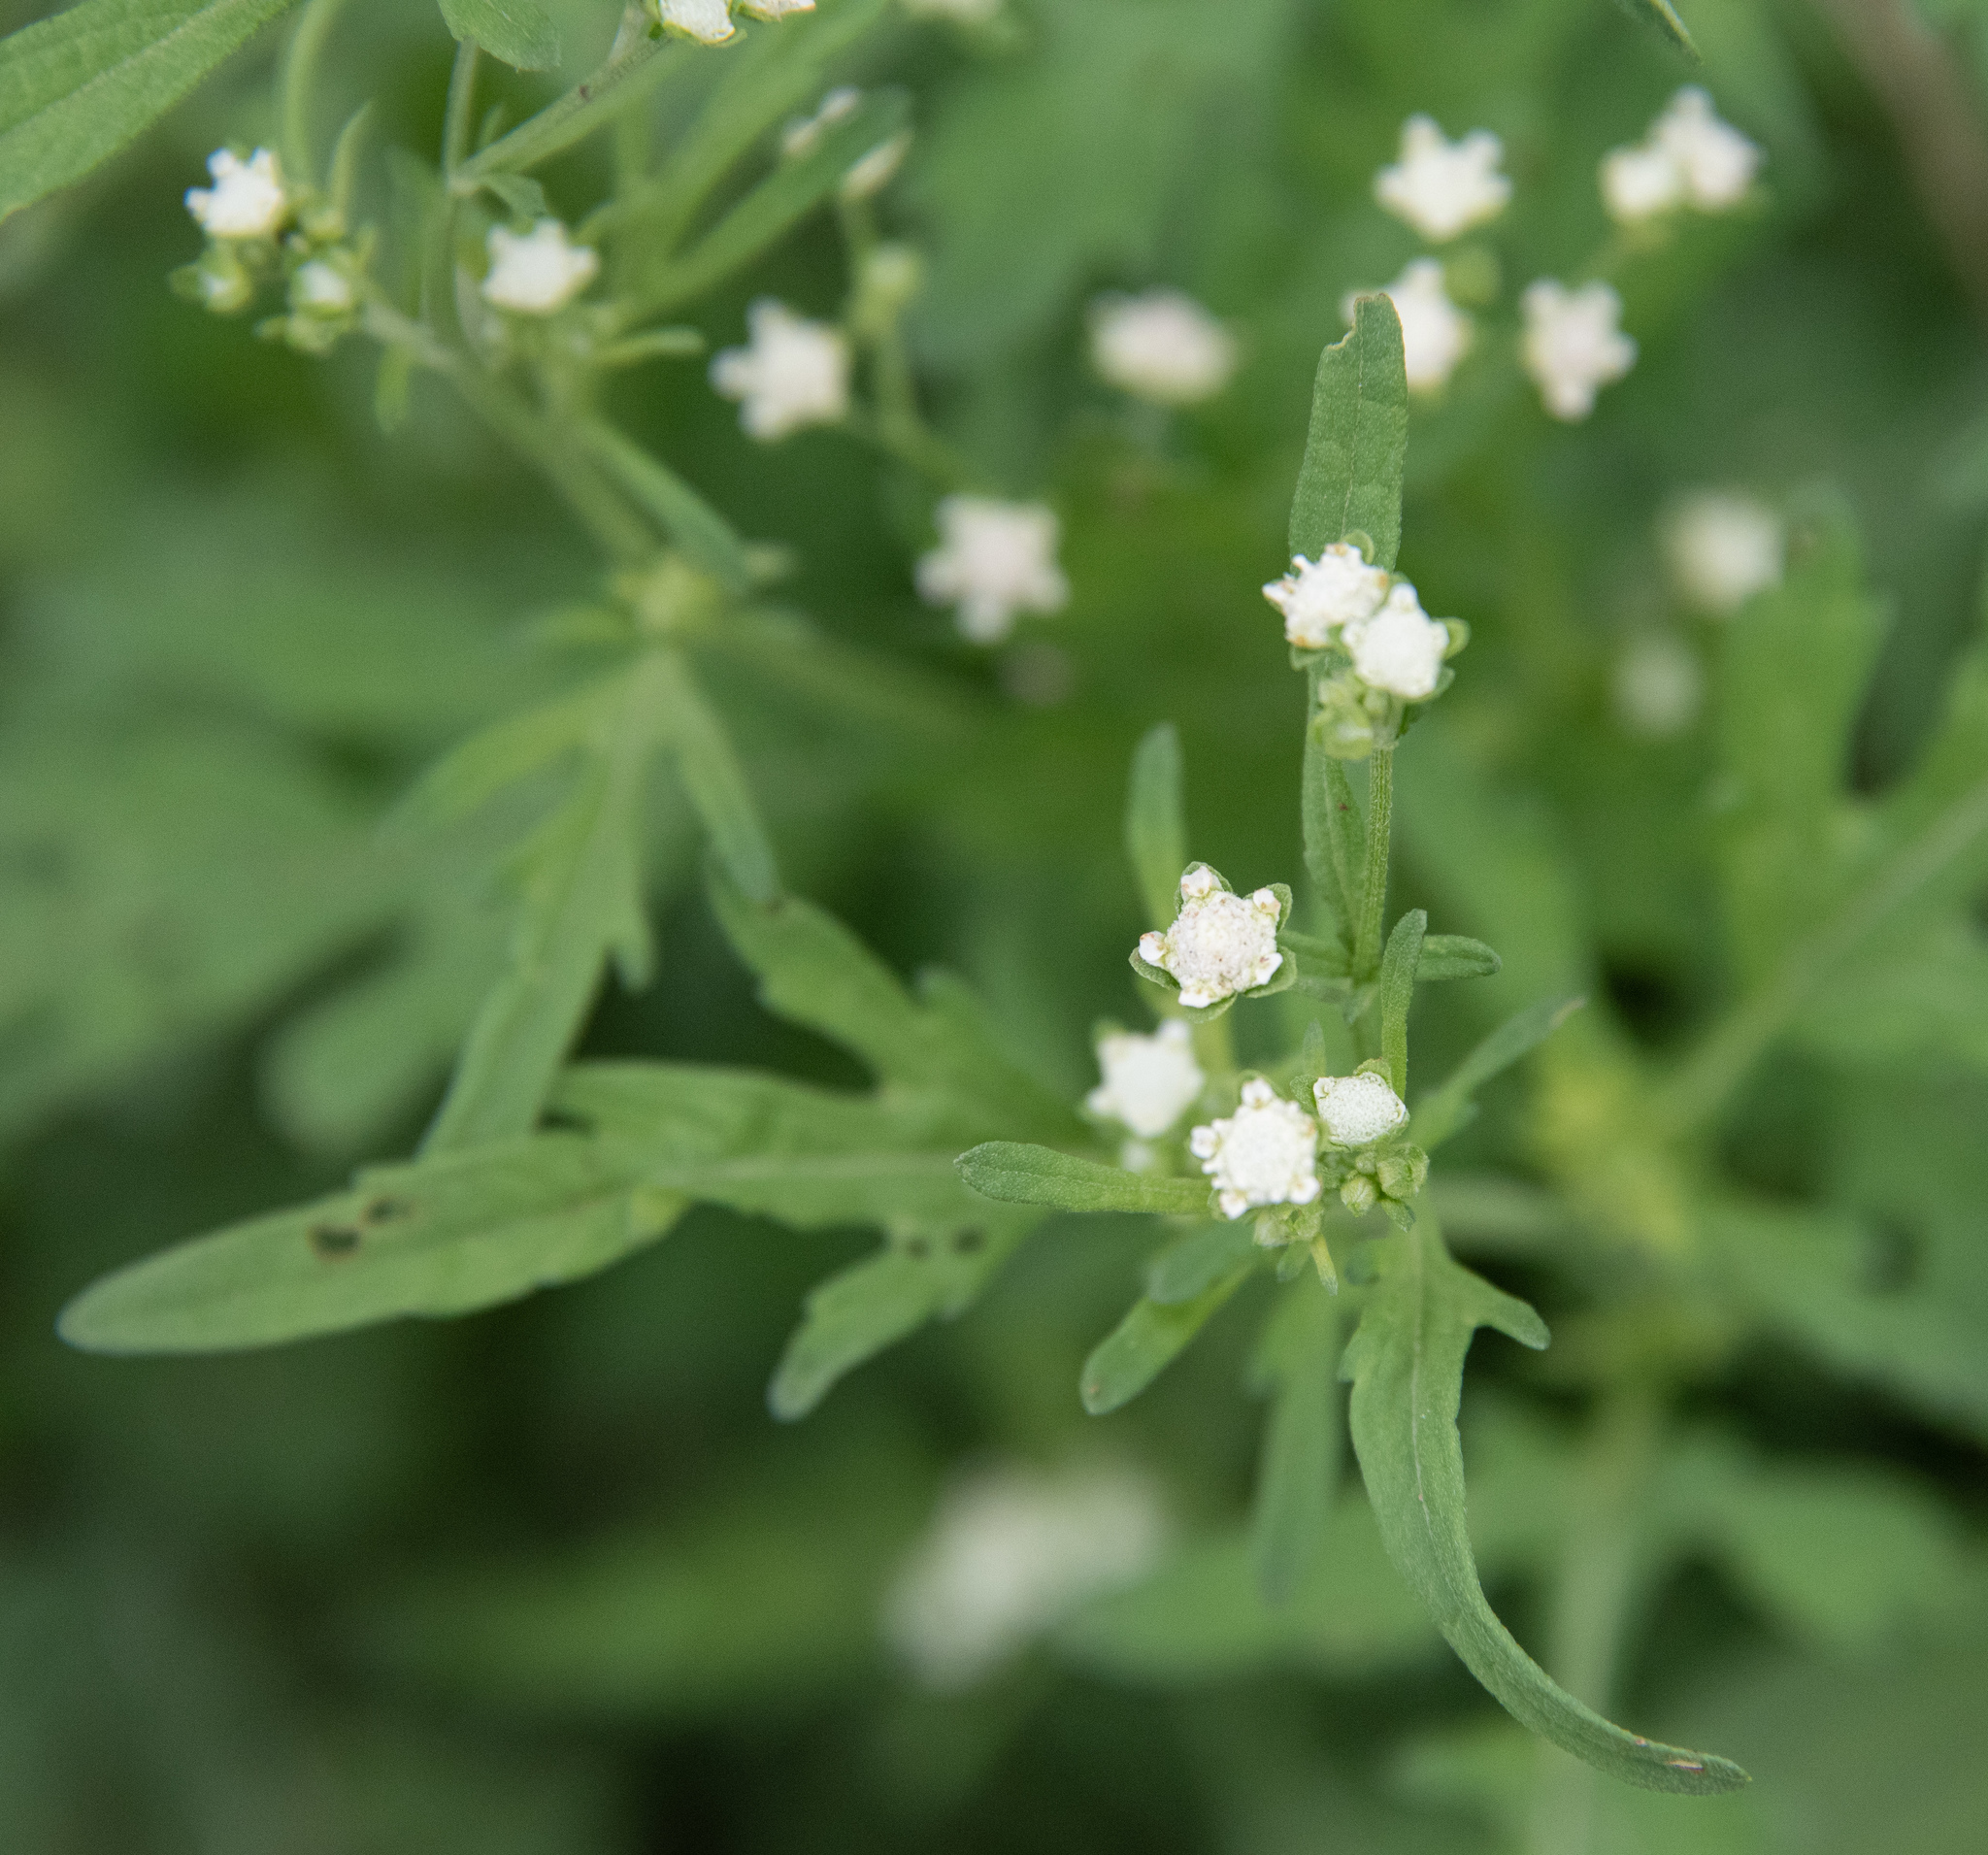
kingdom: Plantae
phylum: Tracheophyta
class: Magnoliopsida
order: Asterales
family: Asteraceae
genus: Parthenium
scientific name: Parthenium hysterophorus
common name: Santa maria feverfew
